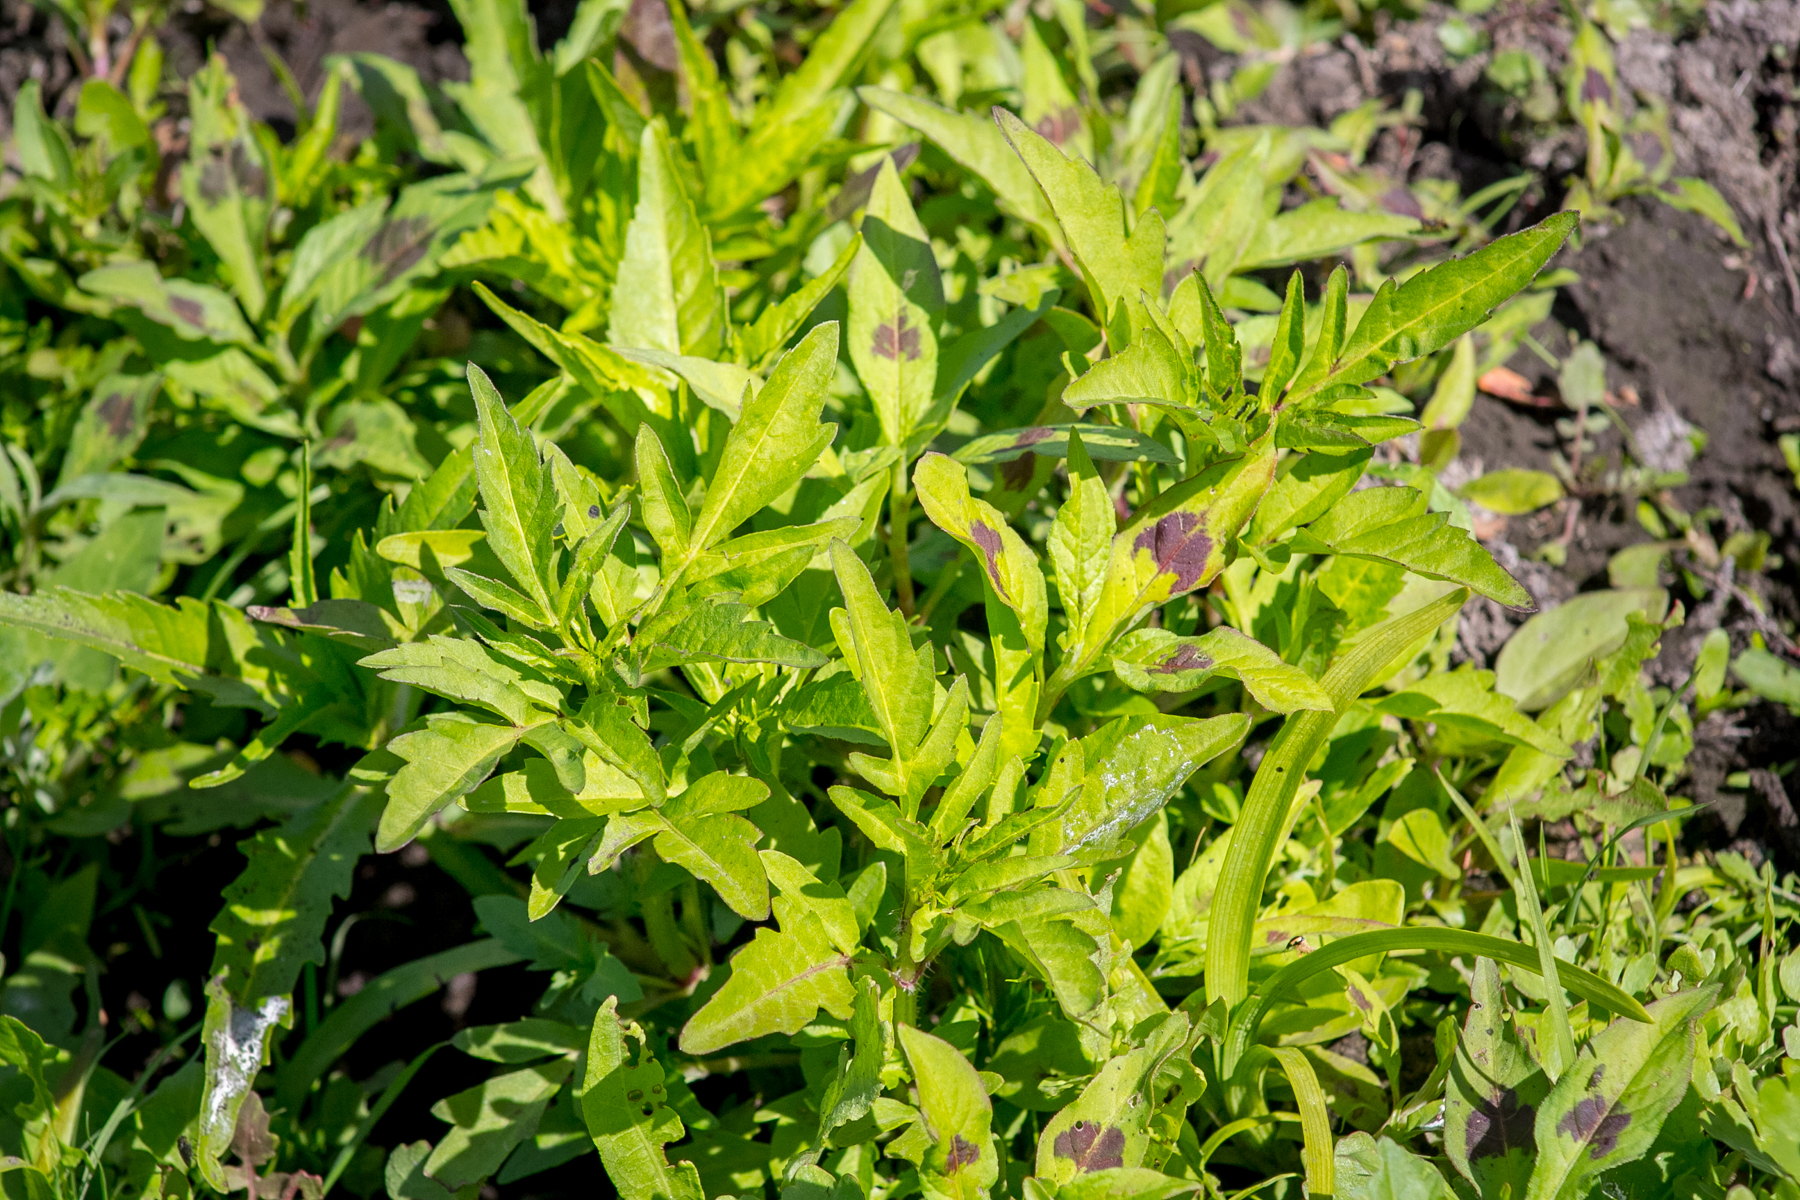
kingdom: Plantae
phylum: Tracheophyta
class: Magnoliopsida
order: Asterales
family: Asteraceae
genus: Bidens
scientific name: Bidens tripartita
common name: Trifid bur-marigold
